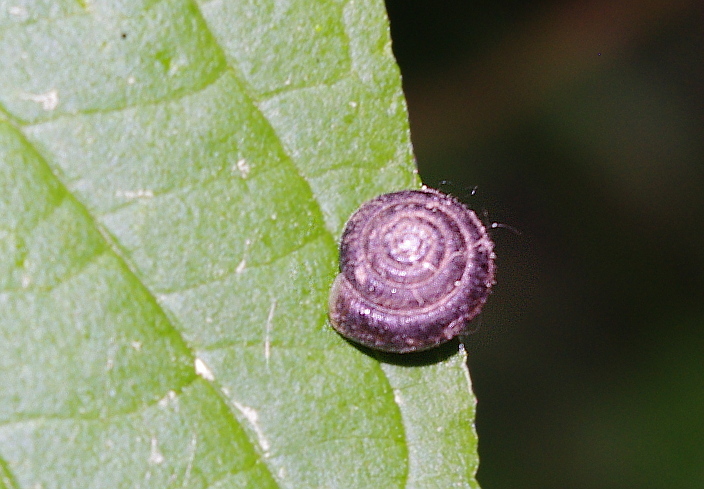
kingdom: Animalia
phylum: Mollusca
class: Gastropoda
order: Stylommatophora
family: Hygromiidae
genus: Trochulus
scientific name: Trochulus hispidus
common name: Hairy snail
